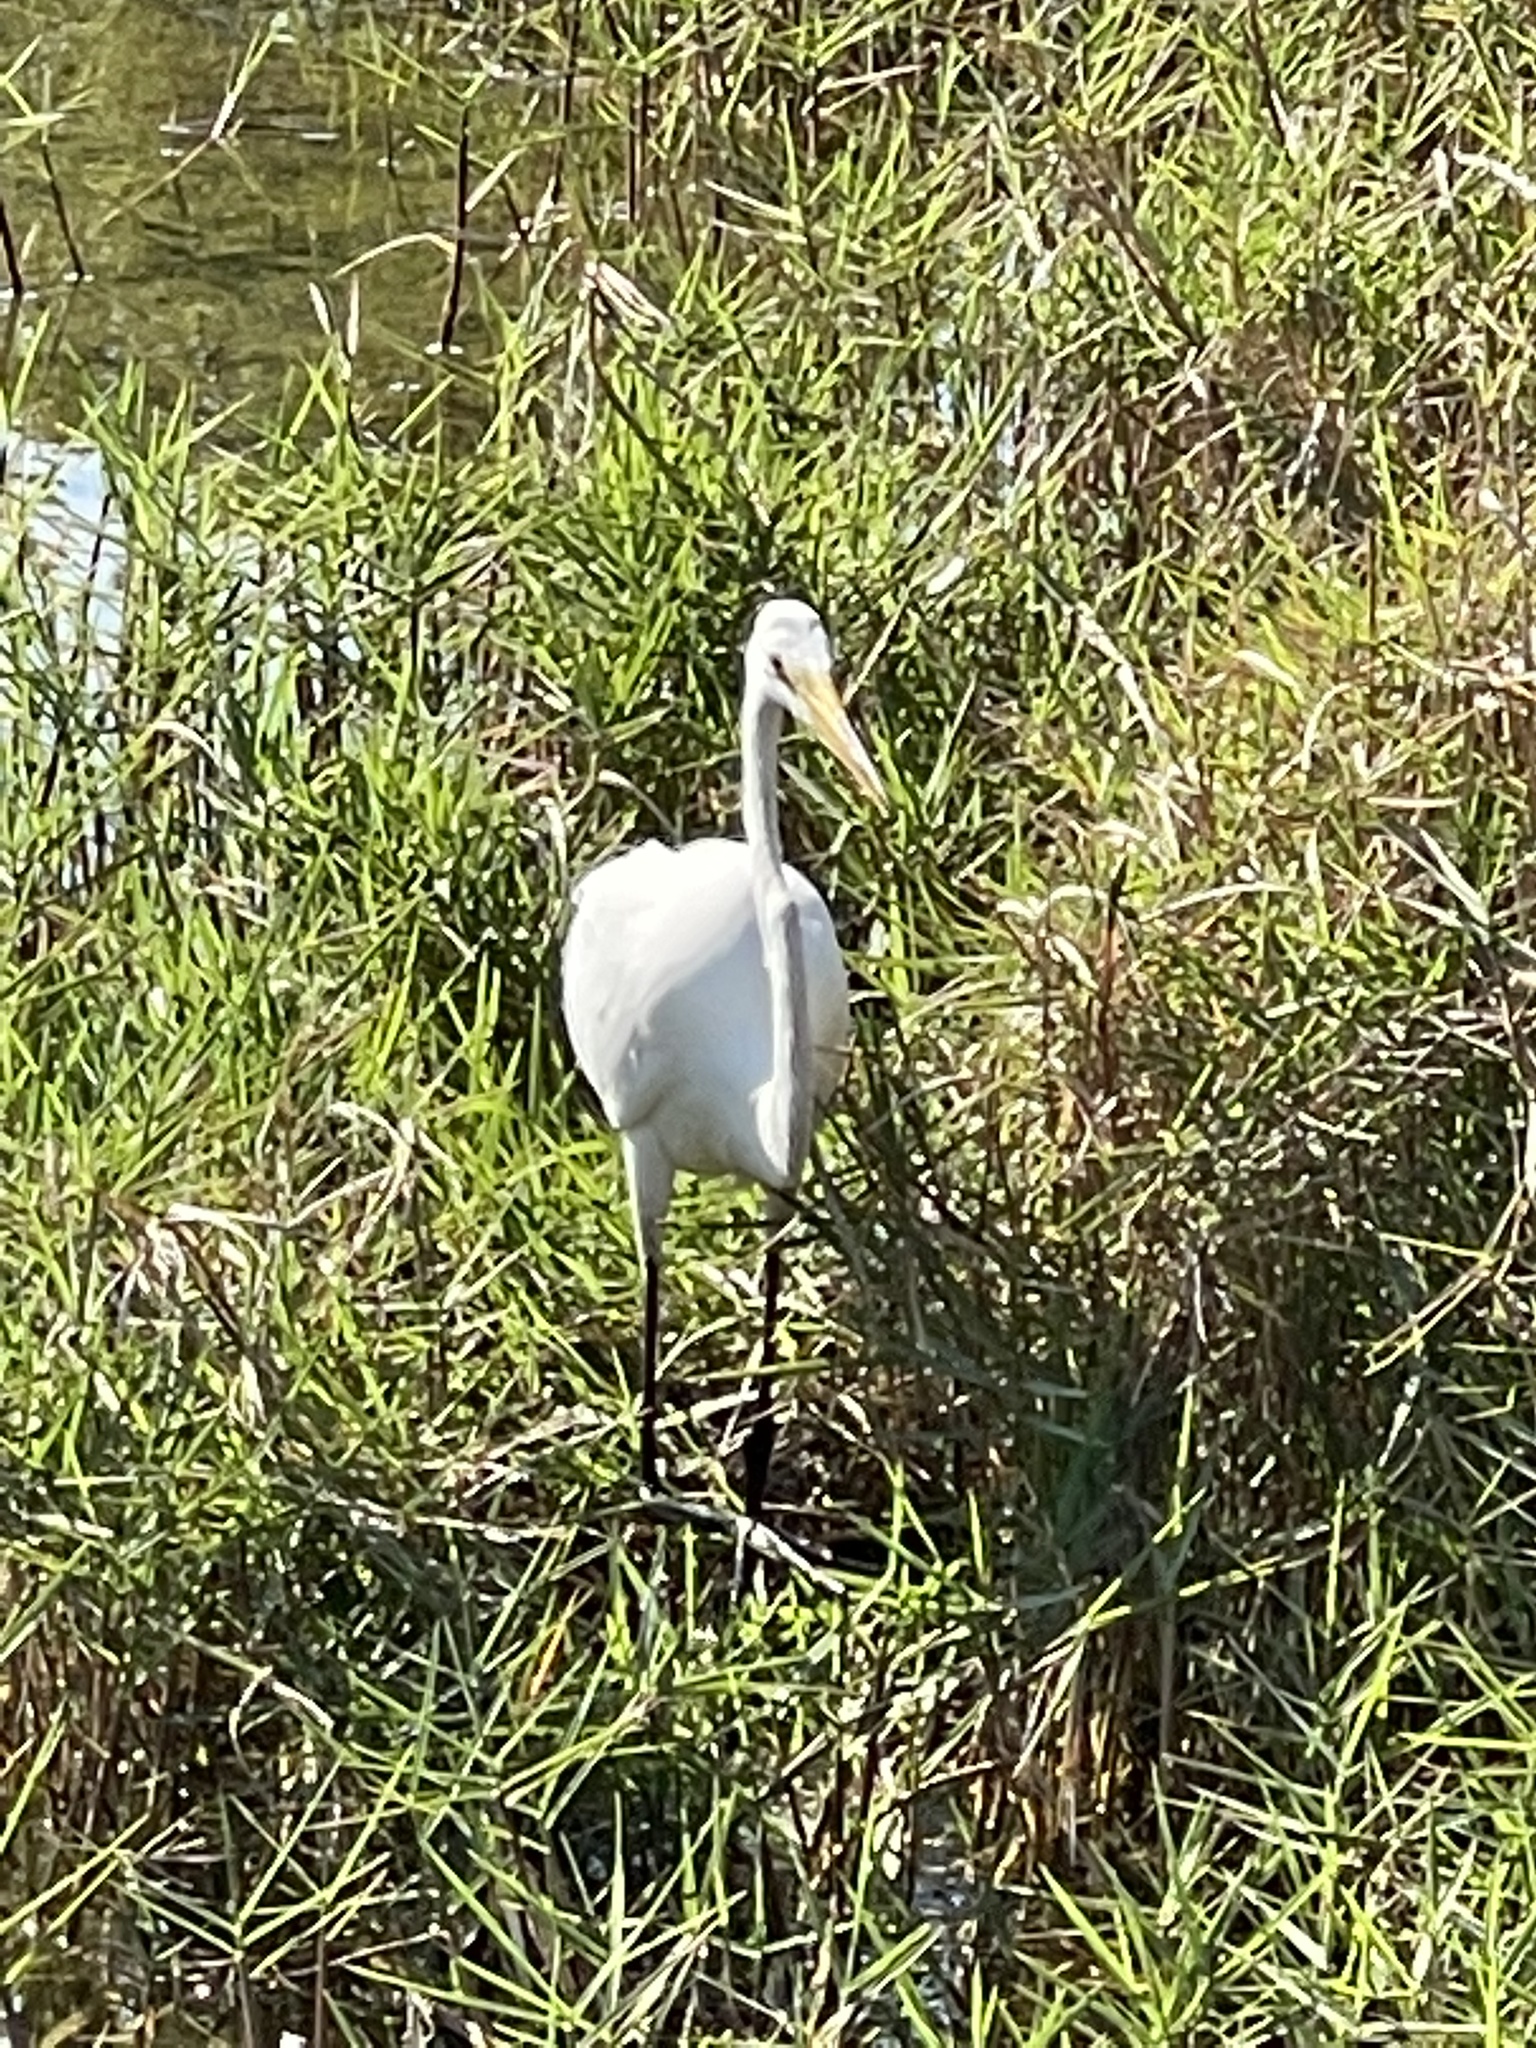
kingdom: Animalia
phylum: Chordata
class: Aves
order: Pelecaniformes
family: Ardeidae
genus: Ardea
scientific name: Ardea alba
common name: Great egret
